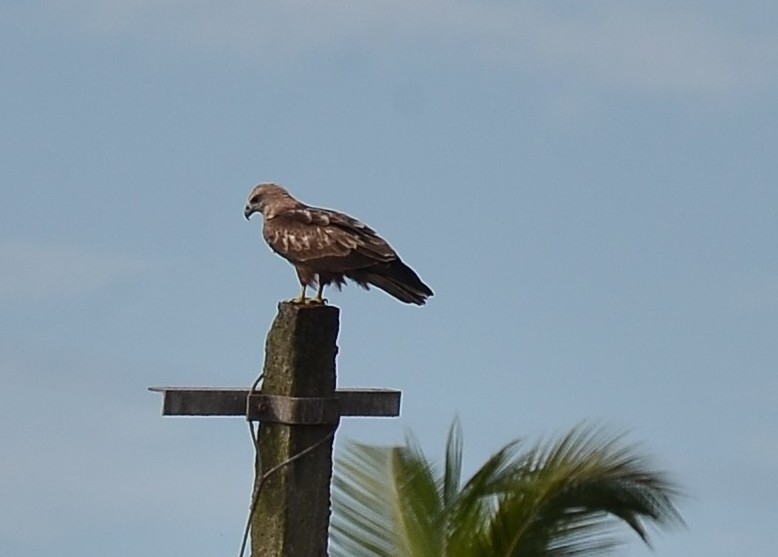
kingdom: Animalia
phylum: Chordata
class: Aves
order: Accipitriformes
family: Accipitridae
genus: Haliastur
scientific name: Haliastur indus
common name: Brahminy kite
